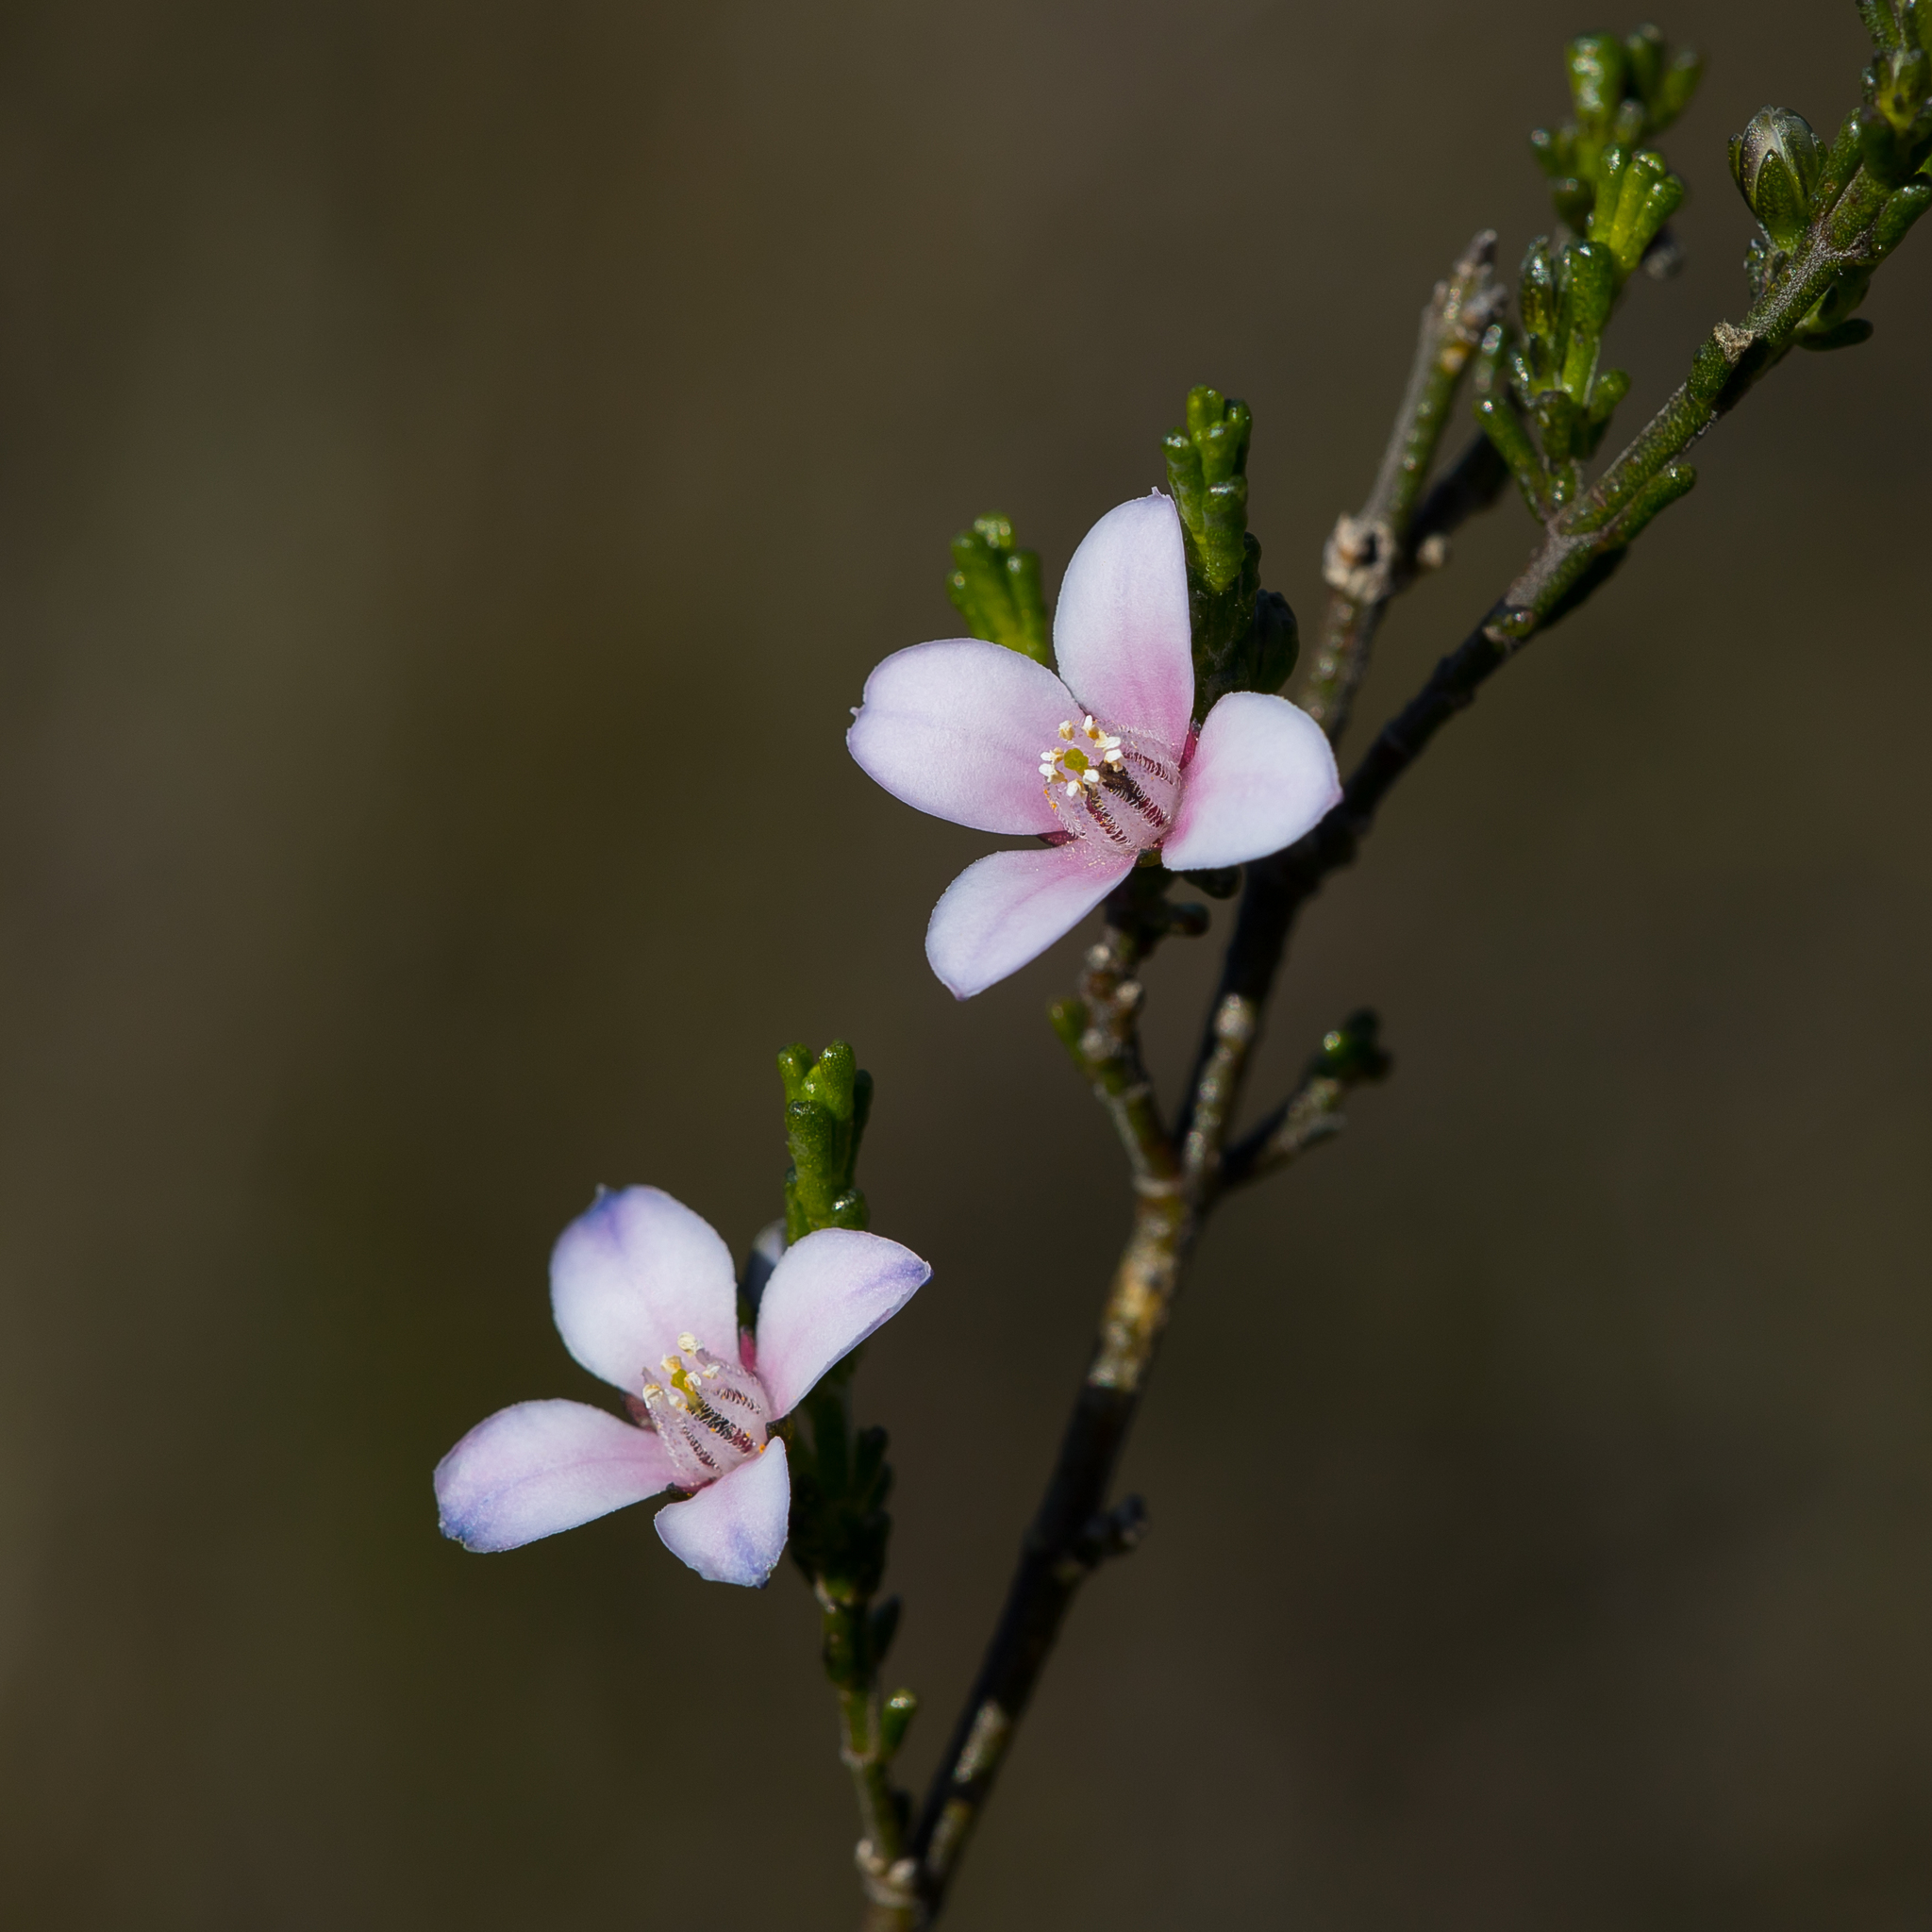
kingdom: Plantae
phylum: Tracheophyta
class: Magnoliopsida
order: Sapindales
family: Rutaceae
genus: Cyanothamnus
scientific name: Cyanothamnus coerulescens
